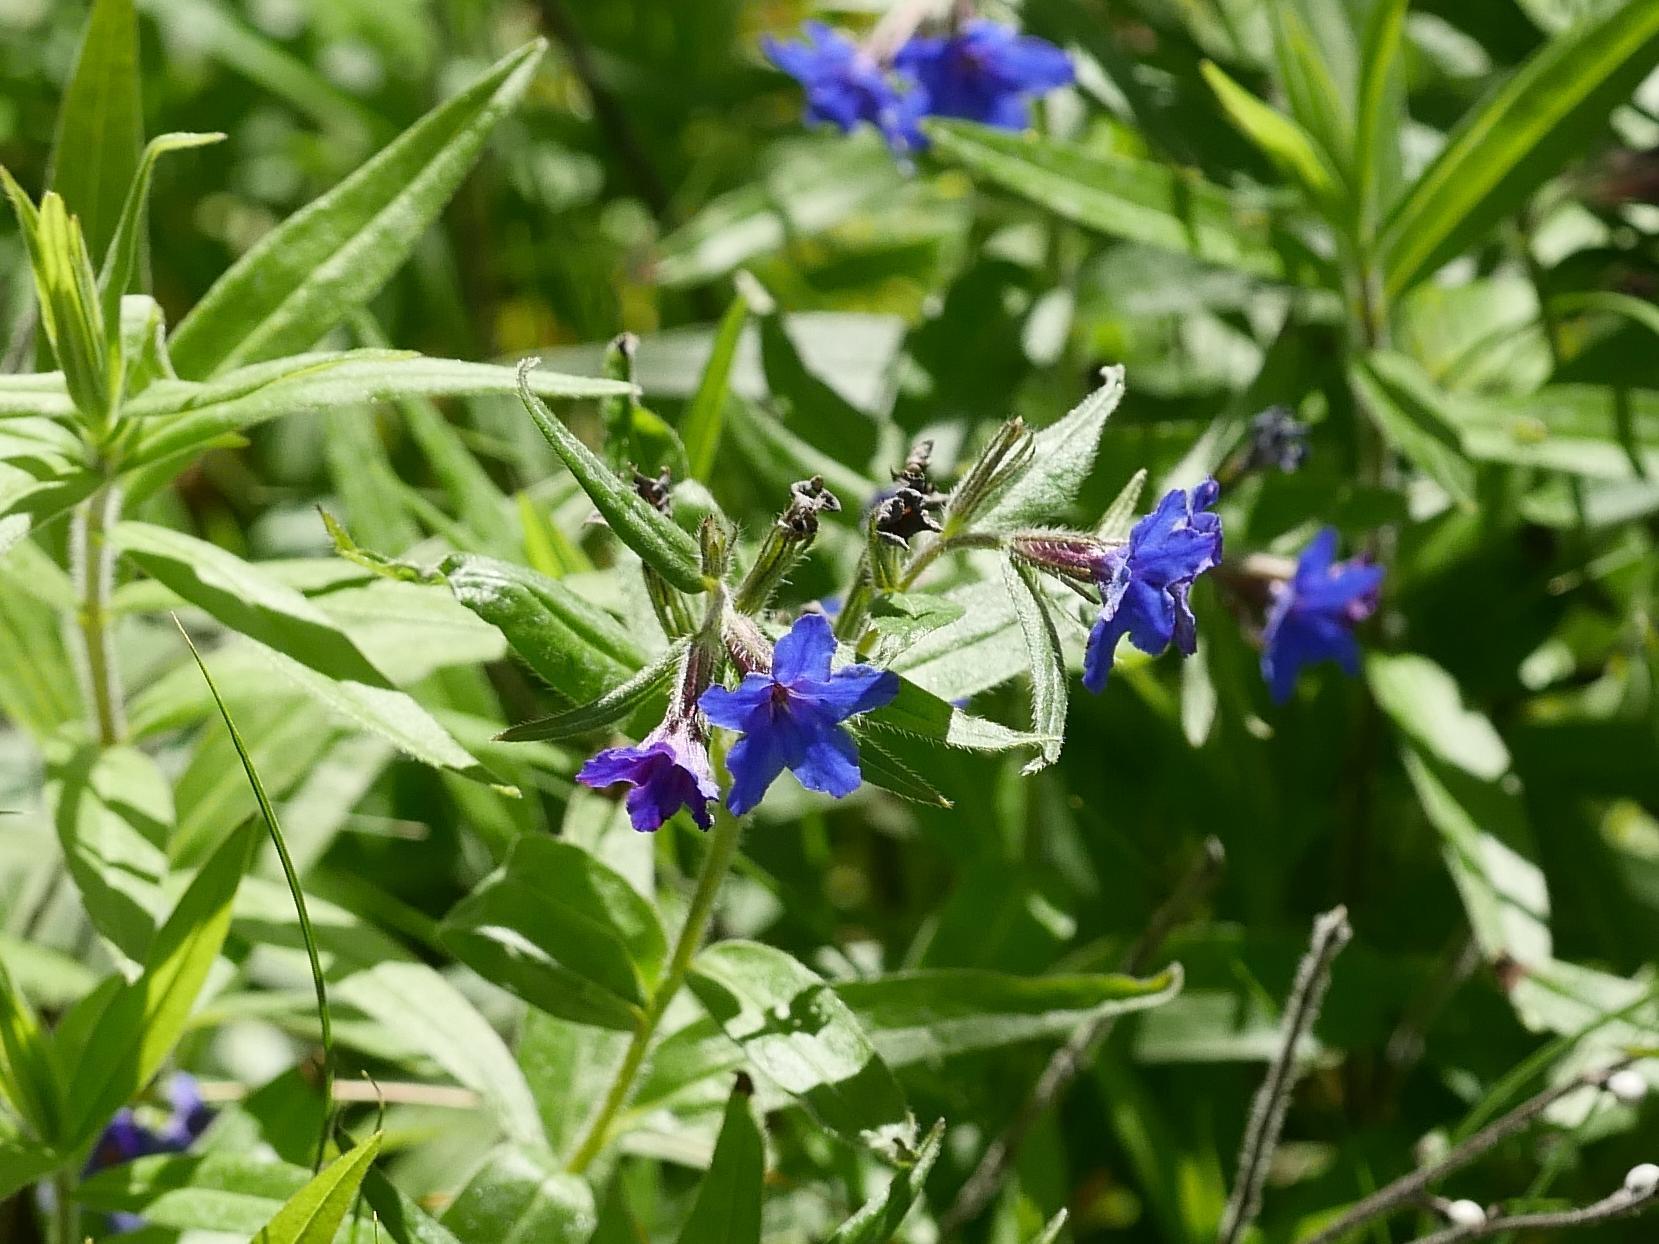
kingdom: Plantae
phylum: Tracheophyta
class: Magnoliopsida
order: Boraginales
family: Boraginaceae
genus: Aegonychon
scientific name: Aegonychon purpurocaeruleum
